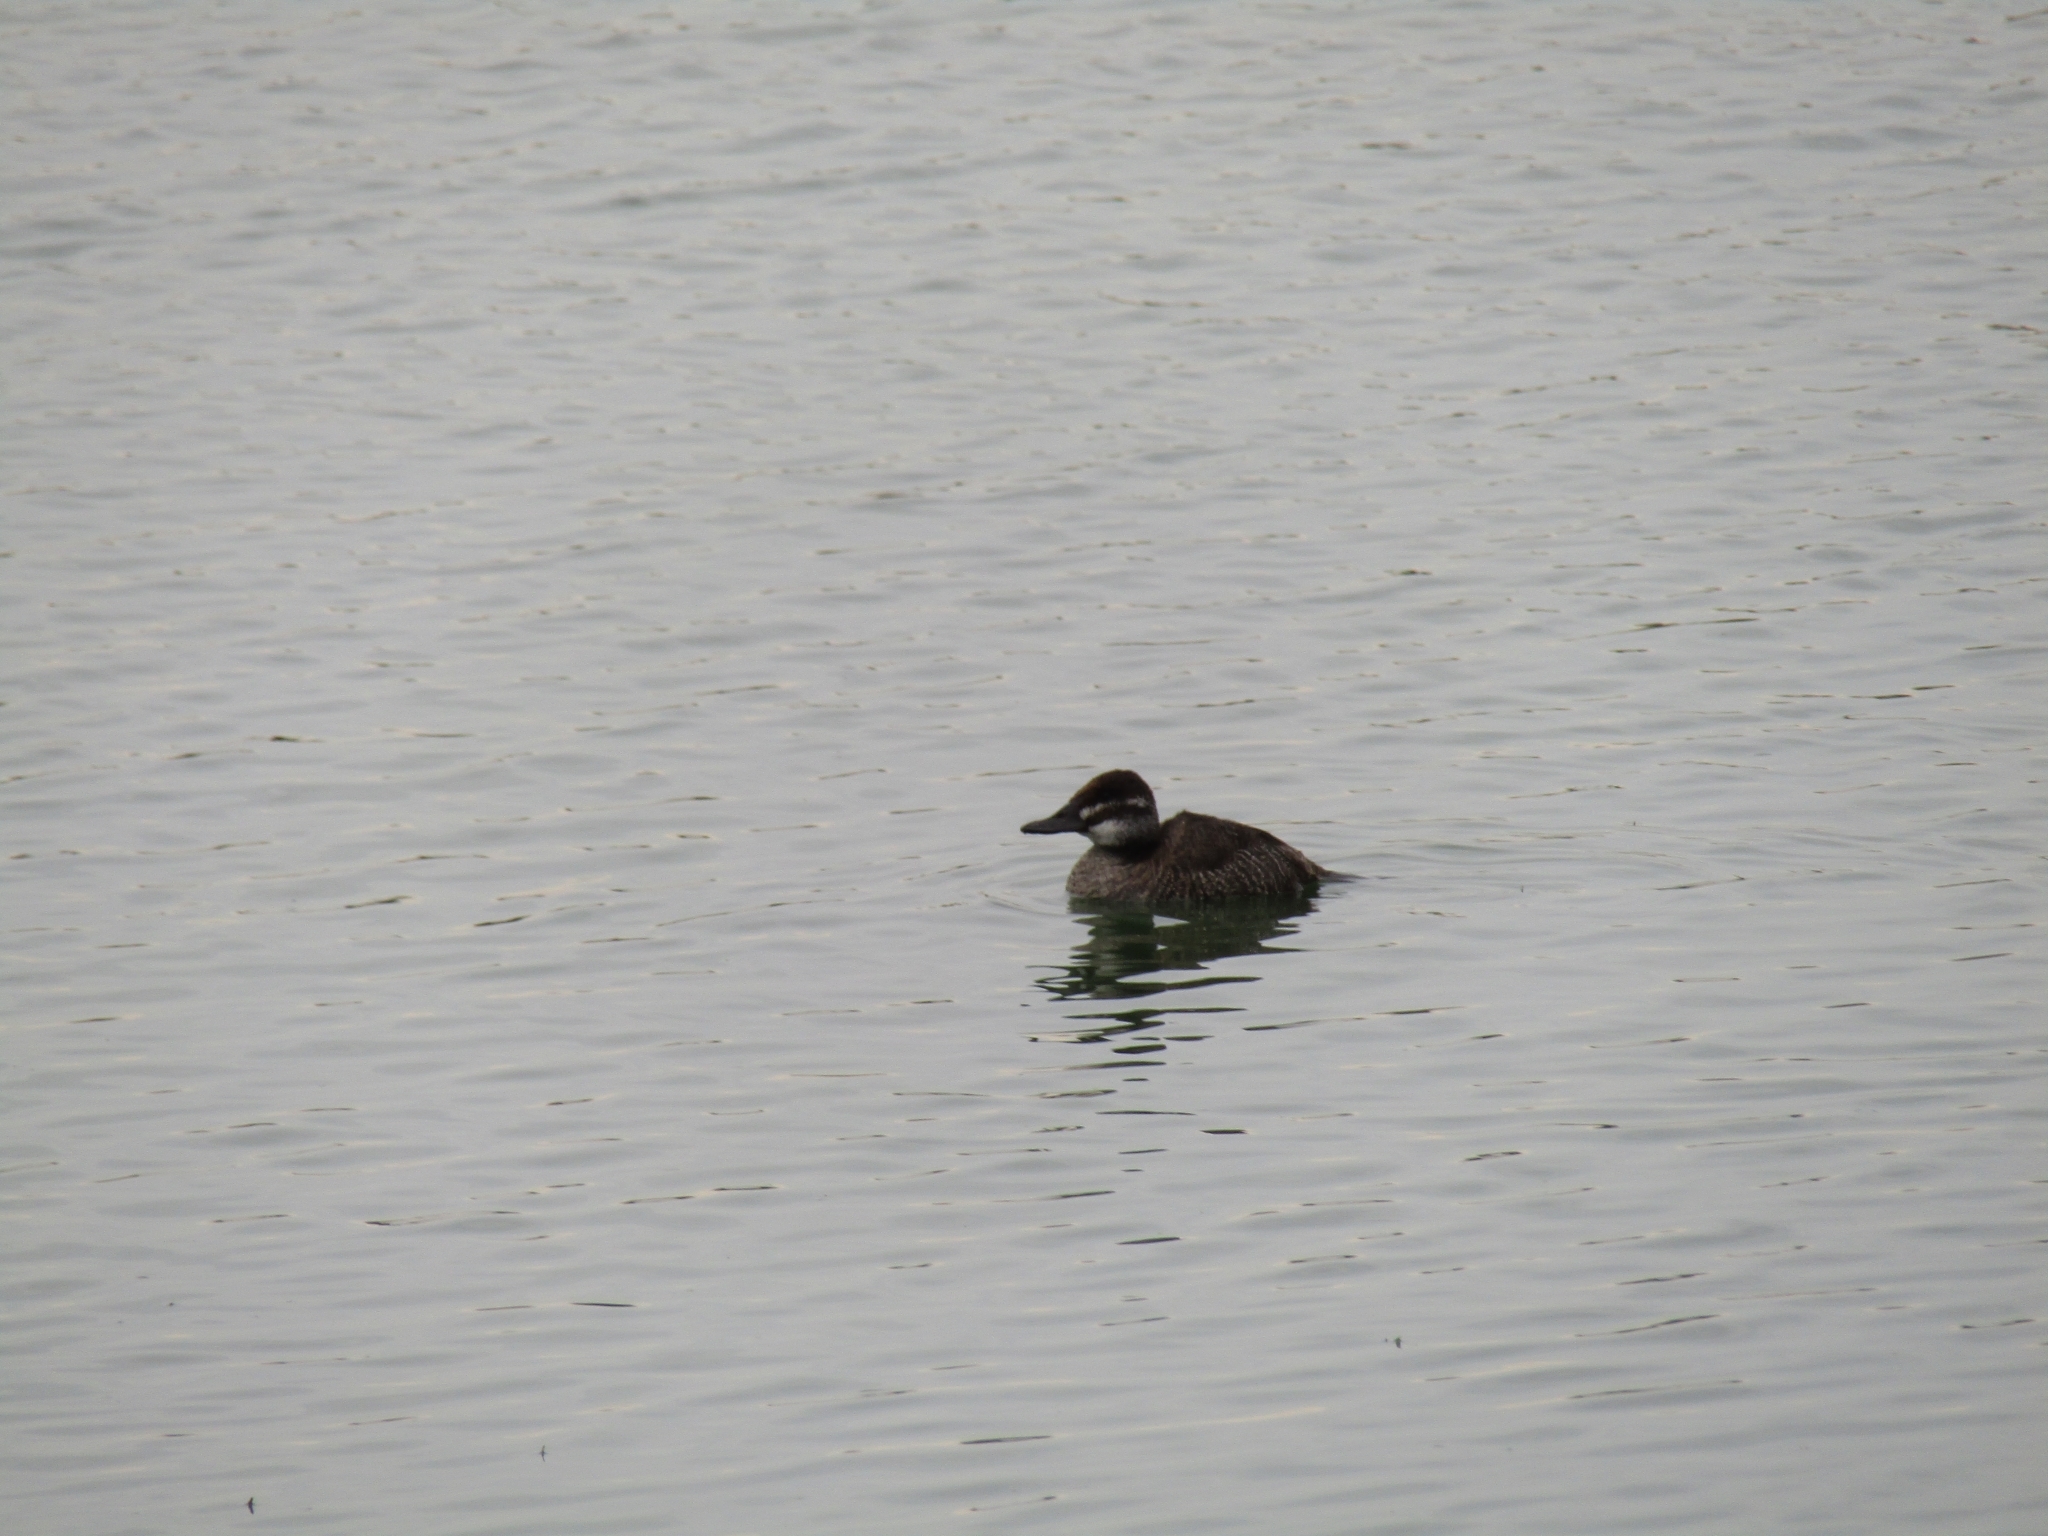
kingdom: Animalia
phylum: Chordata
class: Aves
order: Anseriformes
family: Anatidae
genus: Oxyura
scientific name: Oxyura vittata
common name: Lake duck
